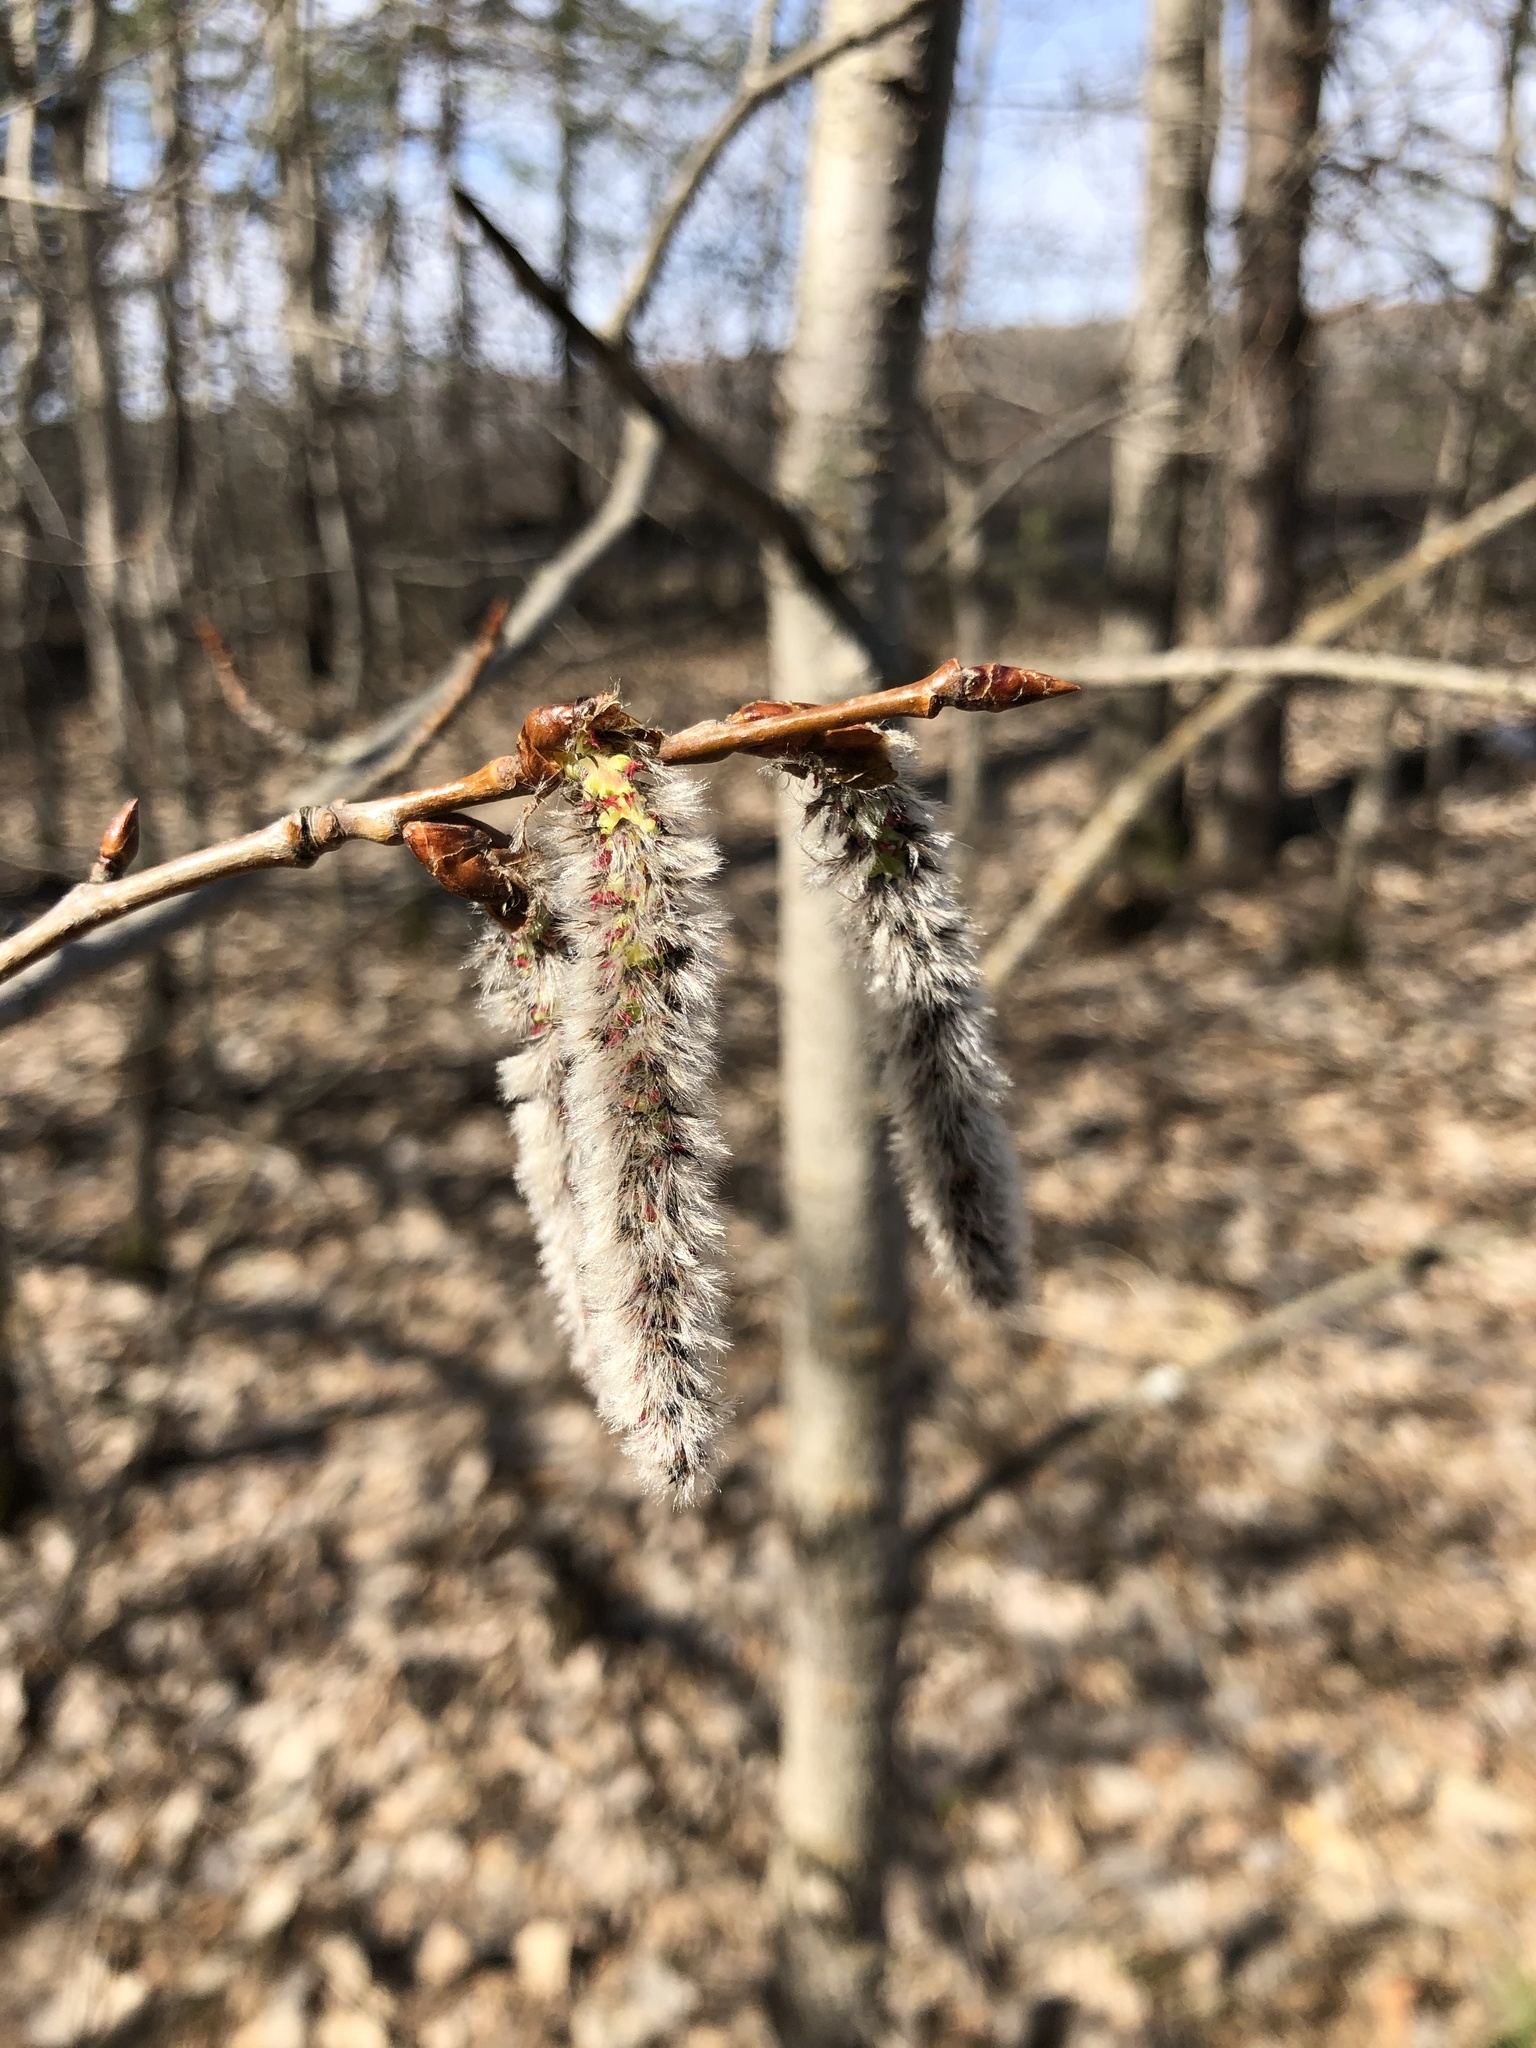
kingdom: Plantae
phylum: Tracheophyta
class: Magnoliopsida
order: Malpighiales
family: Salicaceae
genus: Populus
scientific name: Populus tremula
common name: European aspen
